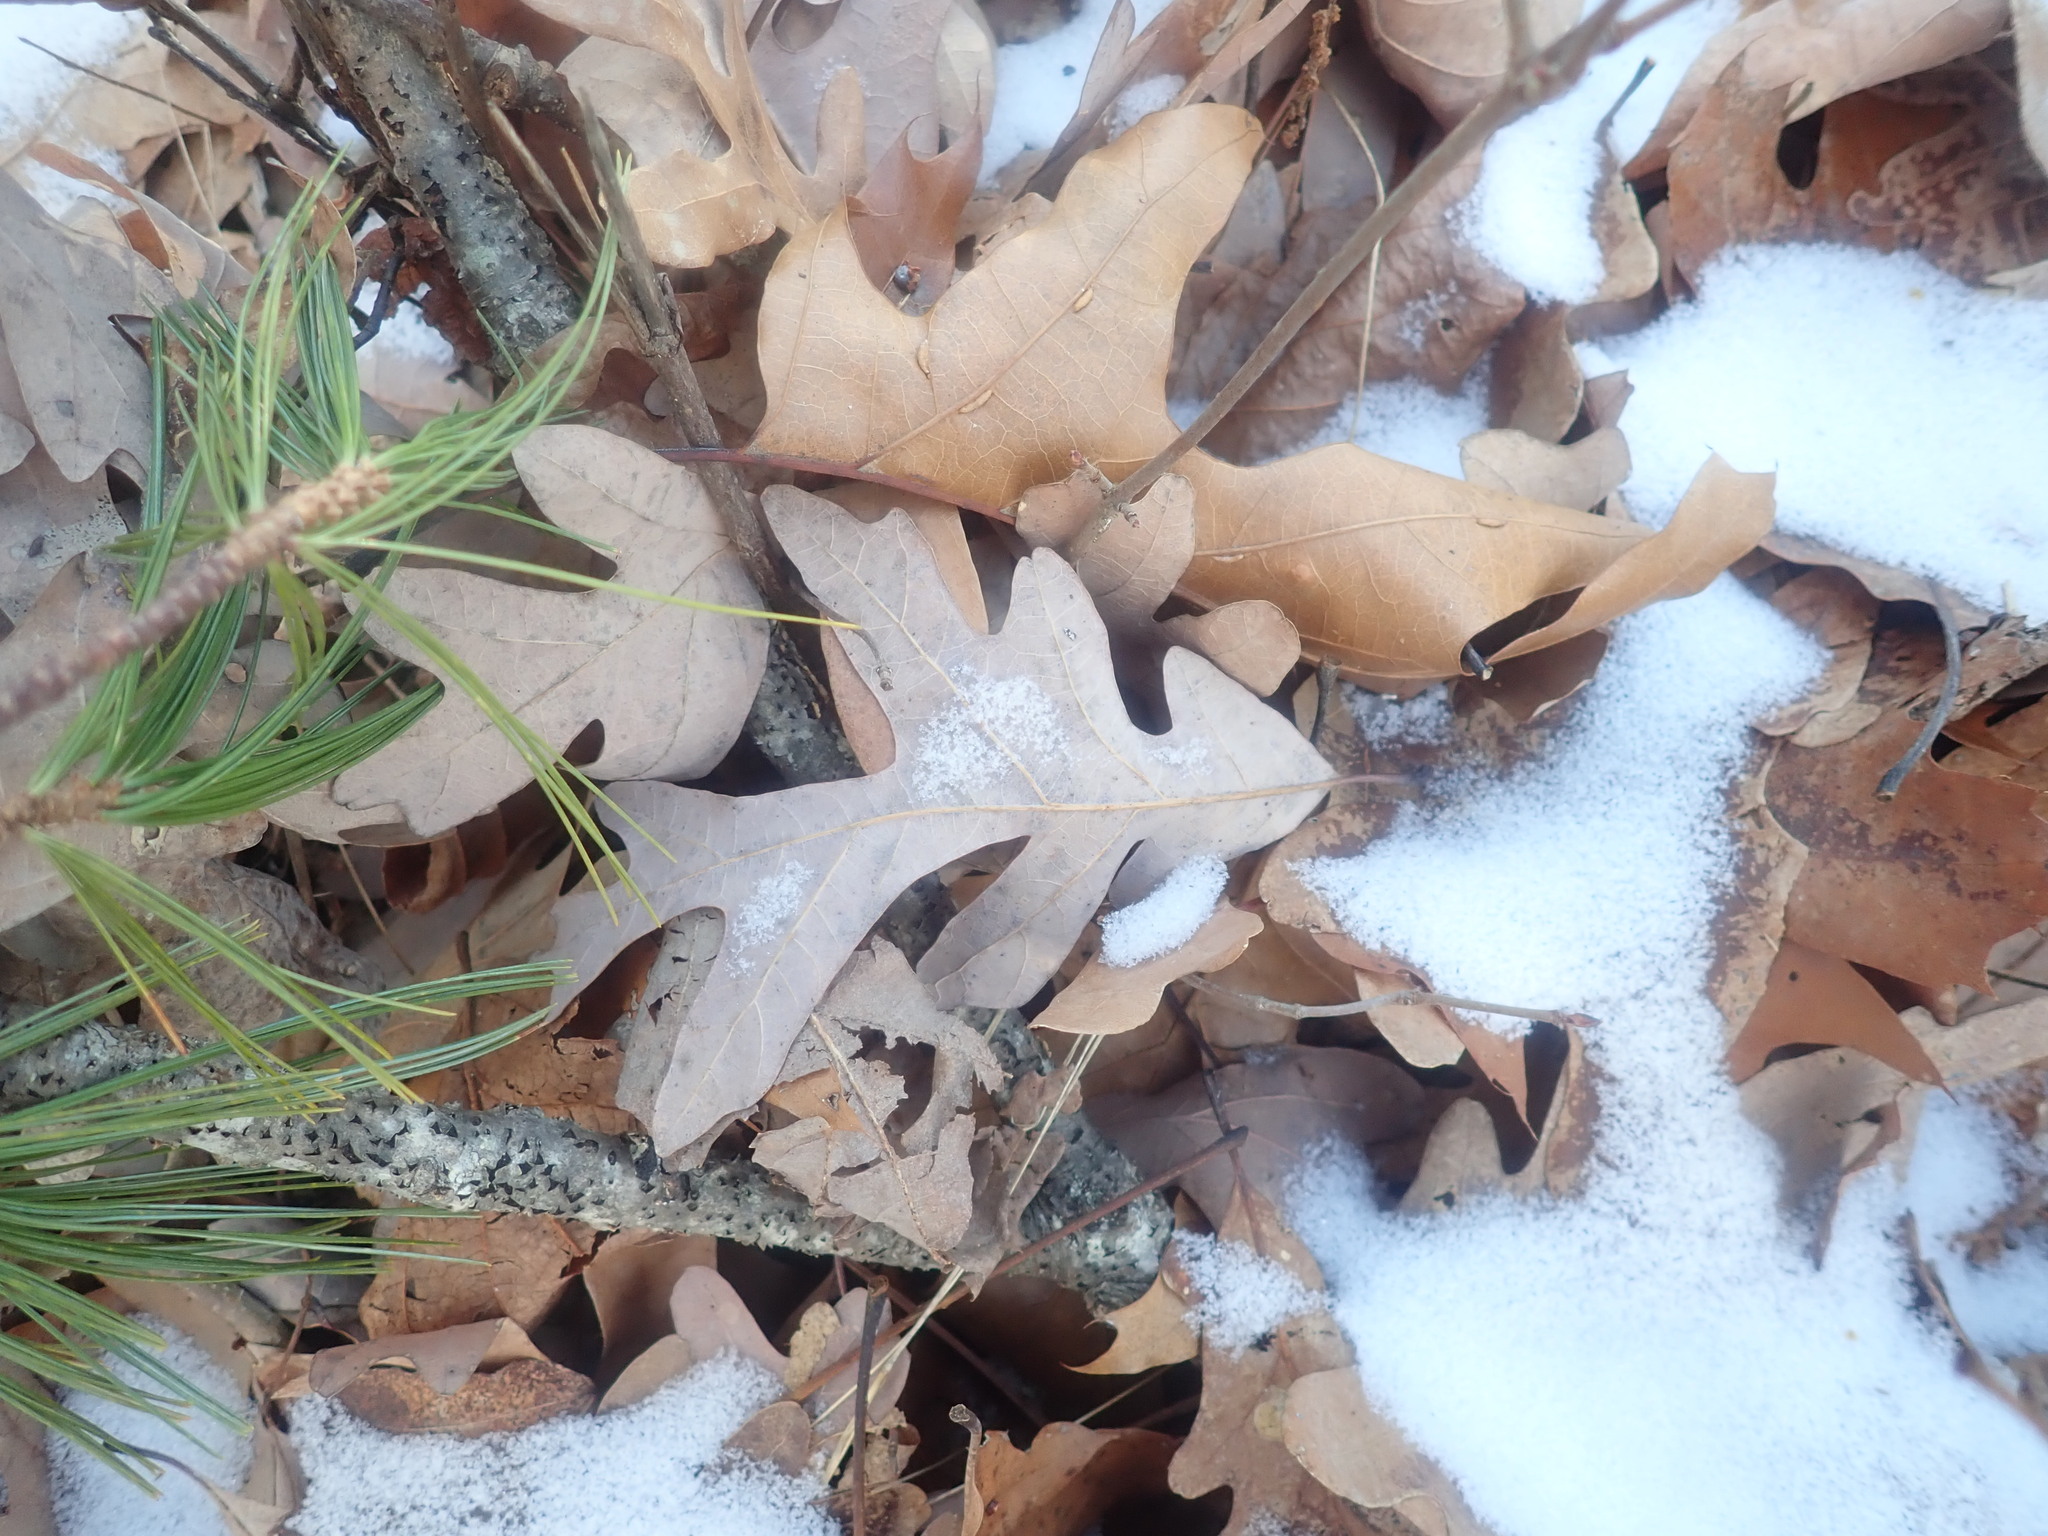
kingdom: Plantae
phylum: Tracheophyta
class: Magnoliopsida
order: Fagales
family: Fagaceae
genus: Quercus
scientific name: Quercus alba
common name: White oak
